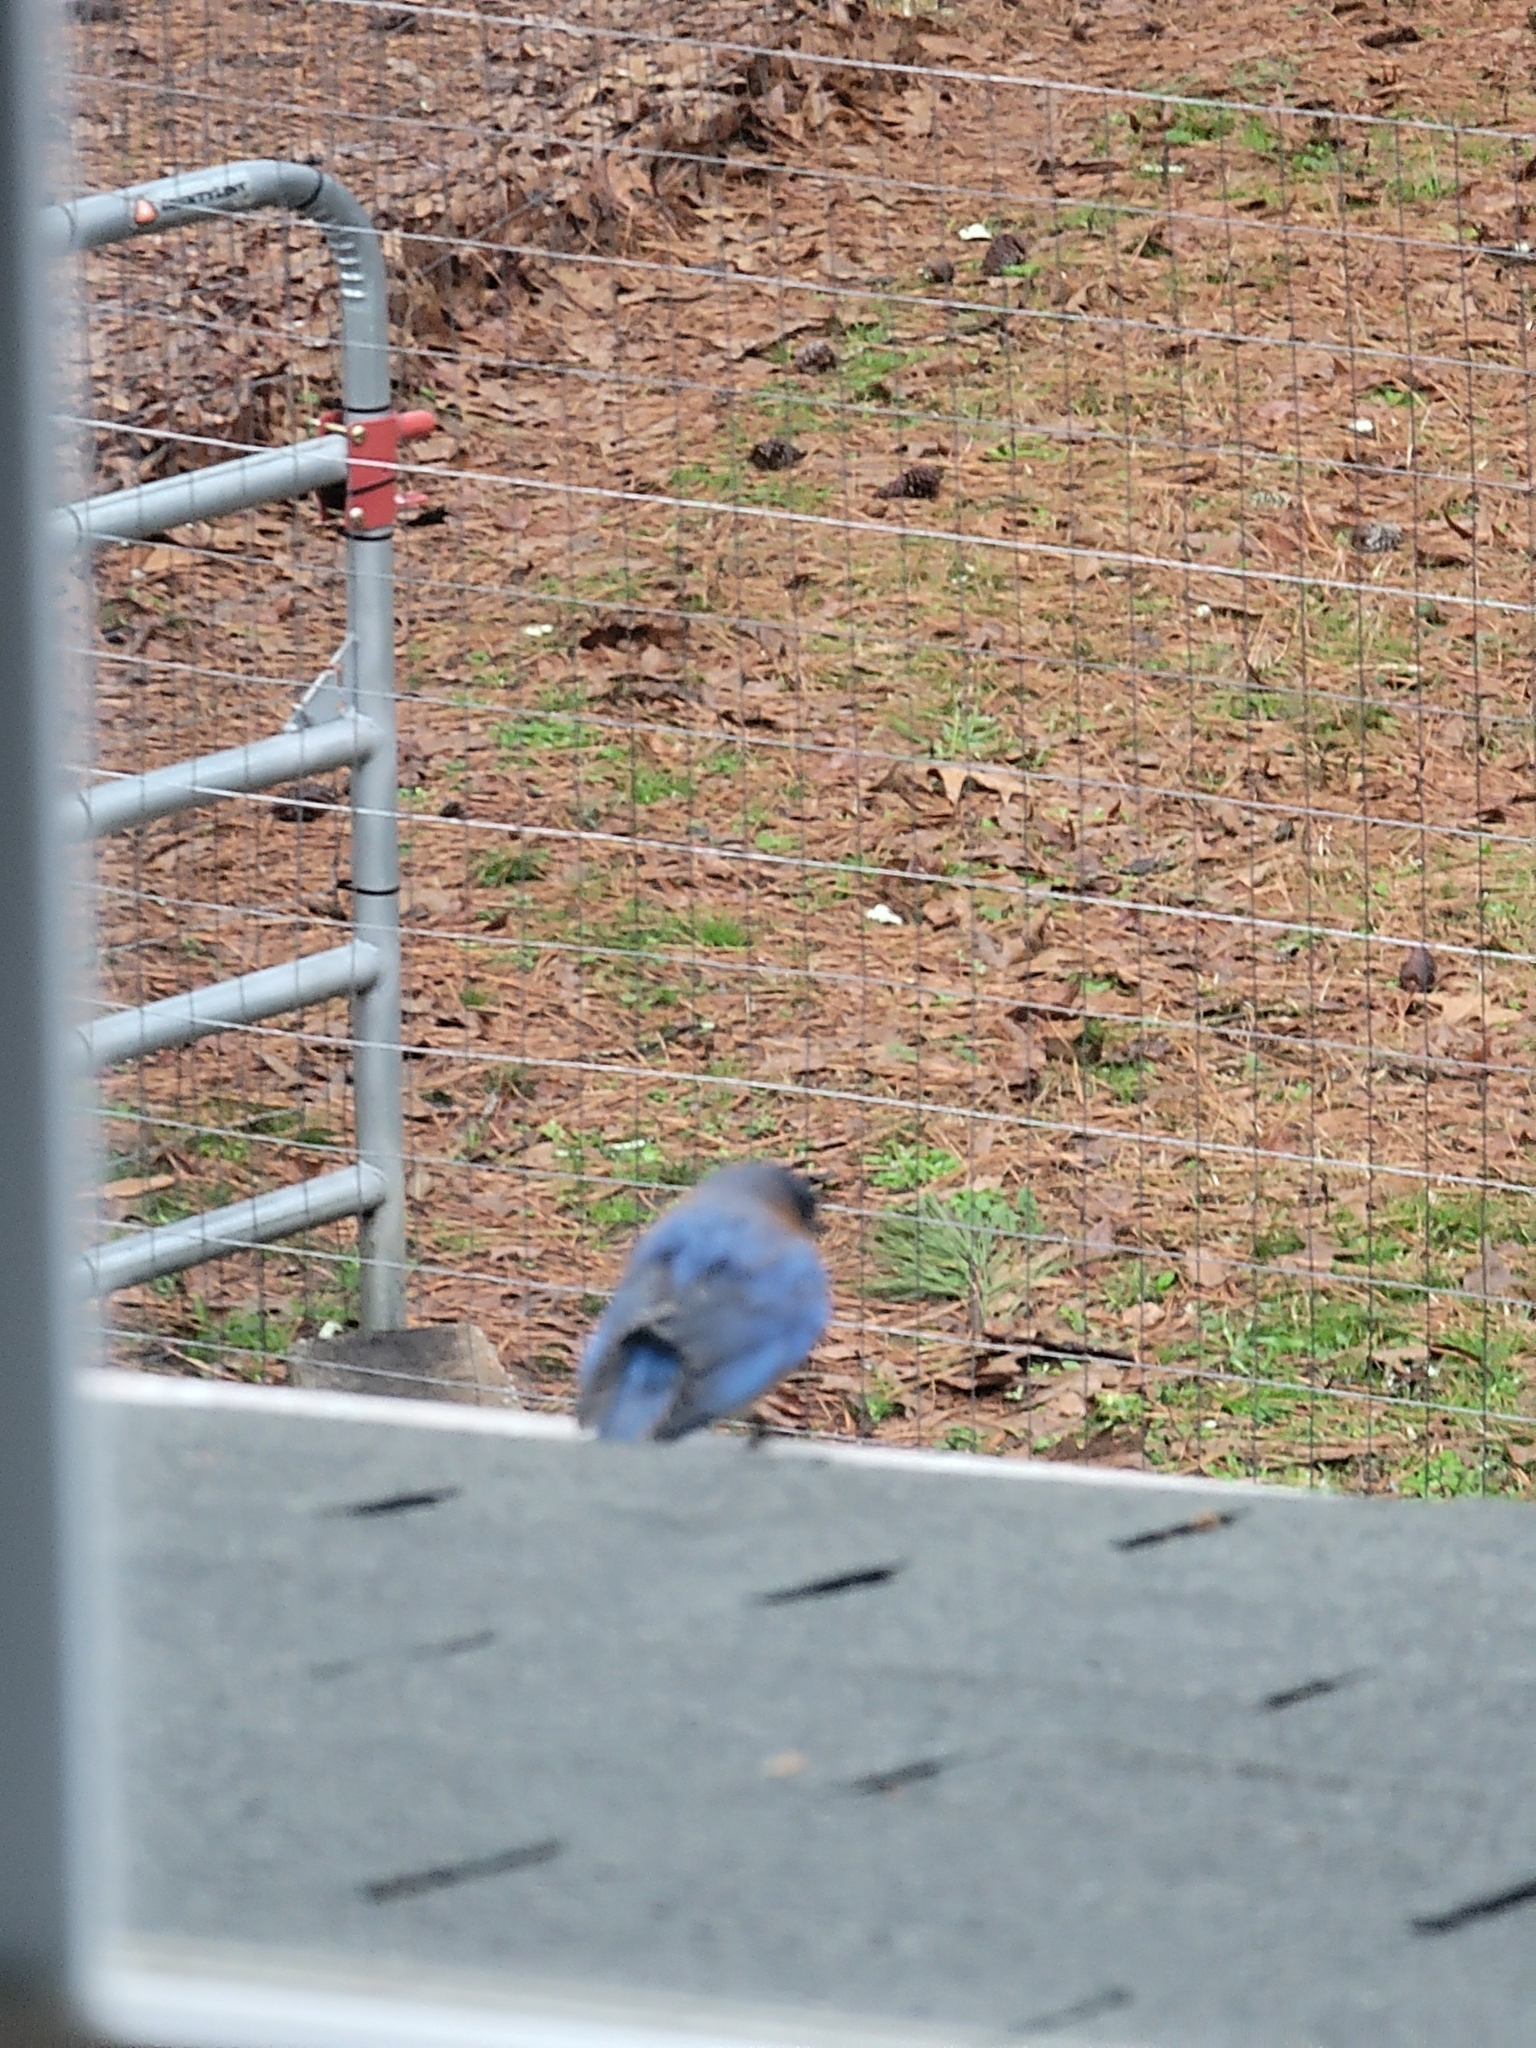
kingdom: Animalia
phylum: Chordata
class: Aves
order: Passeriformes
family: Turdidae
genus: Sialia
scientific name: Sialia sialis
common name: Eastern bluebird
